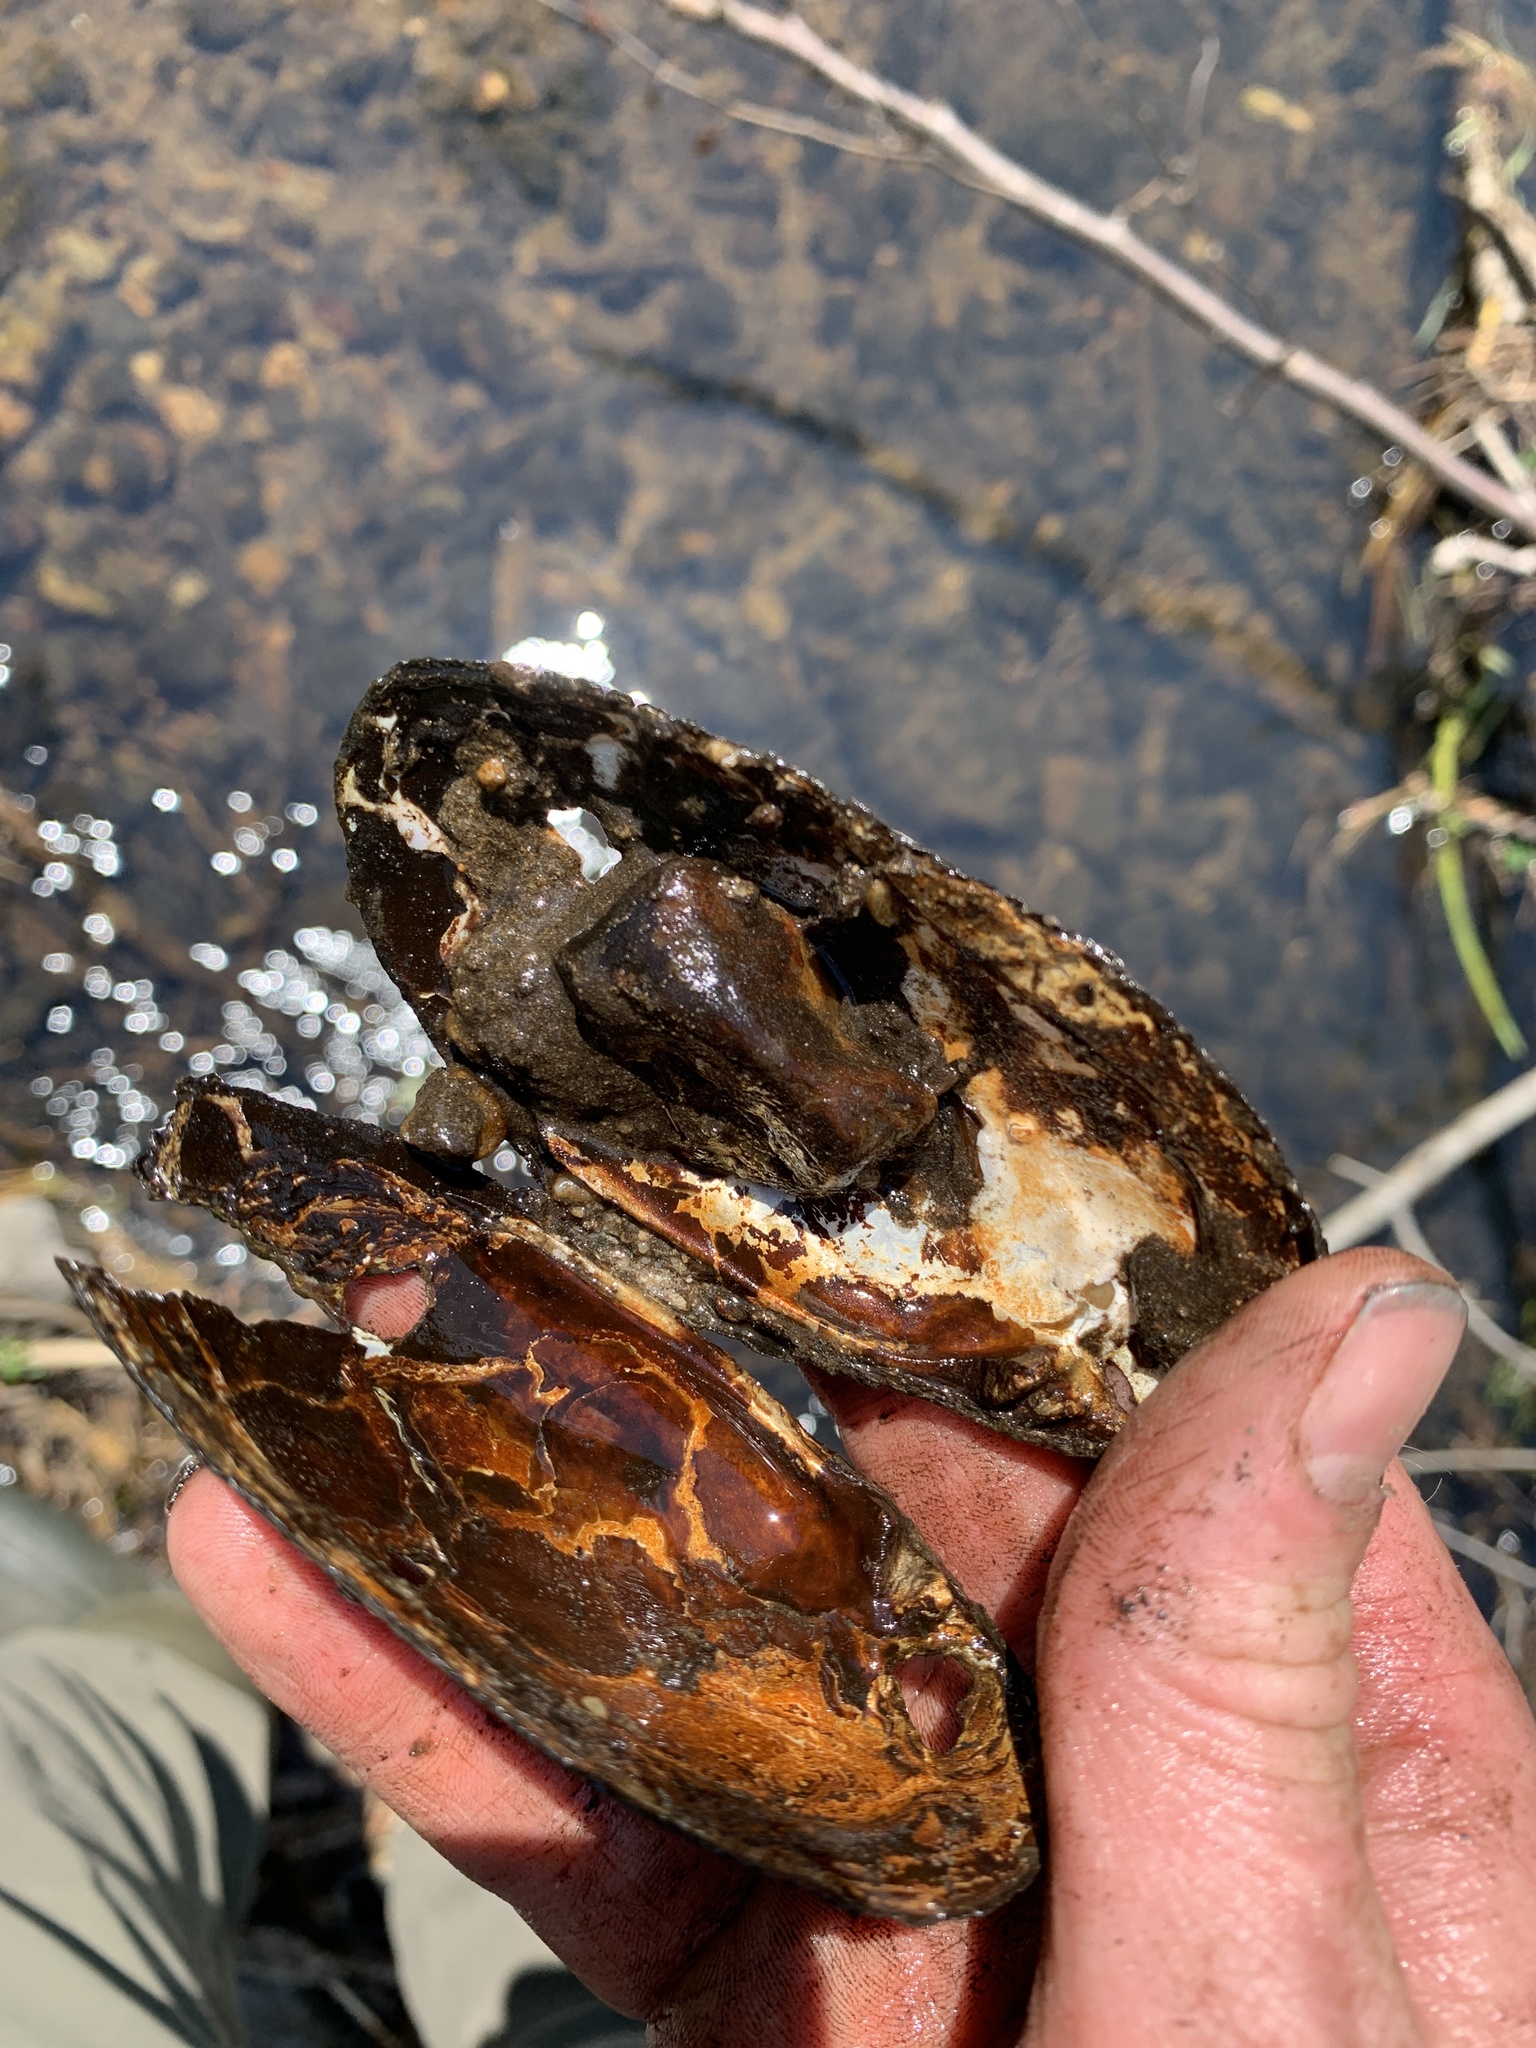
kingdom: Animalia
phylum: Mollusca
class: Bivalvia
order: Unionida
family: Unionidae
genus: Elliptio
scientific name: Elliptio complanata
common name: Eastern elliptio
